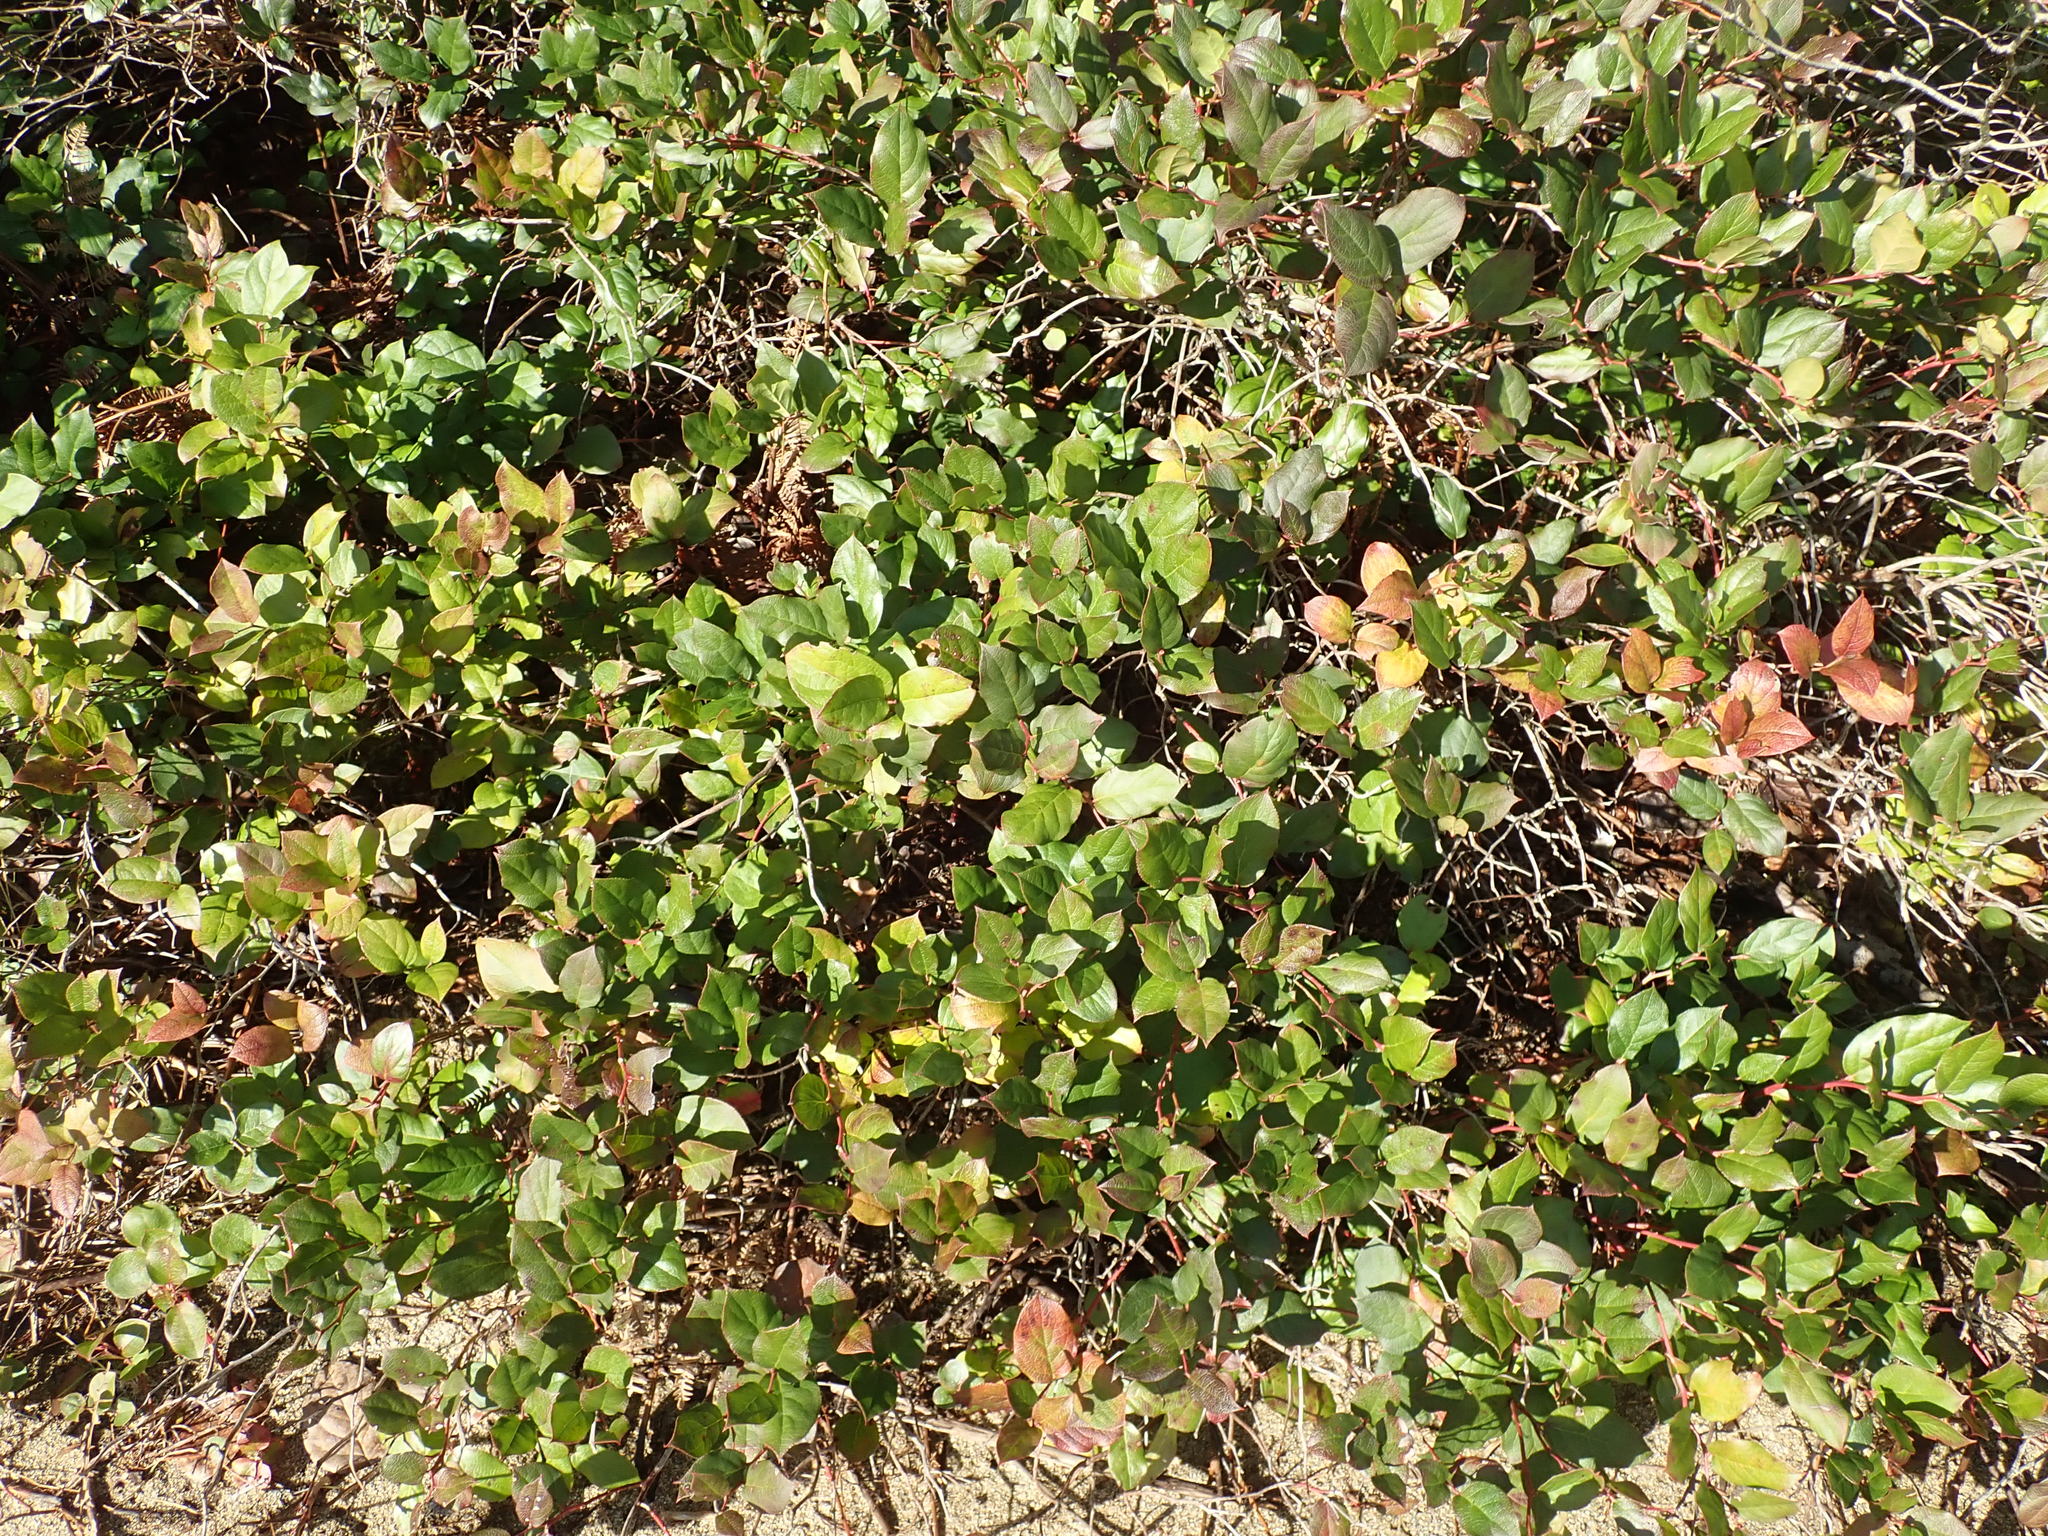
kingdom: Plantae
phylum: Tracheophyta
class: Magnoliopsida
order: Ericales
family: Ericaceae
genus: Gaultheria
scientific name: Gaultheria shallon
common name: Shallon
